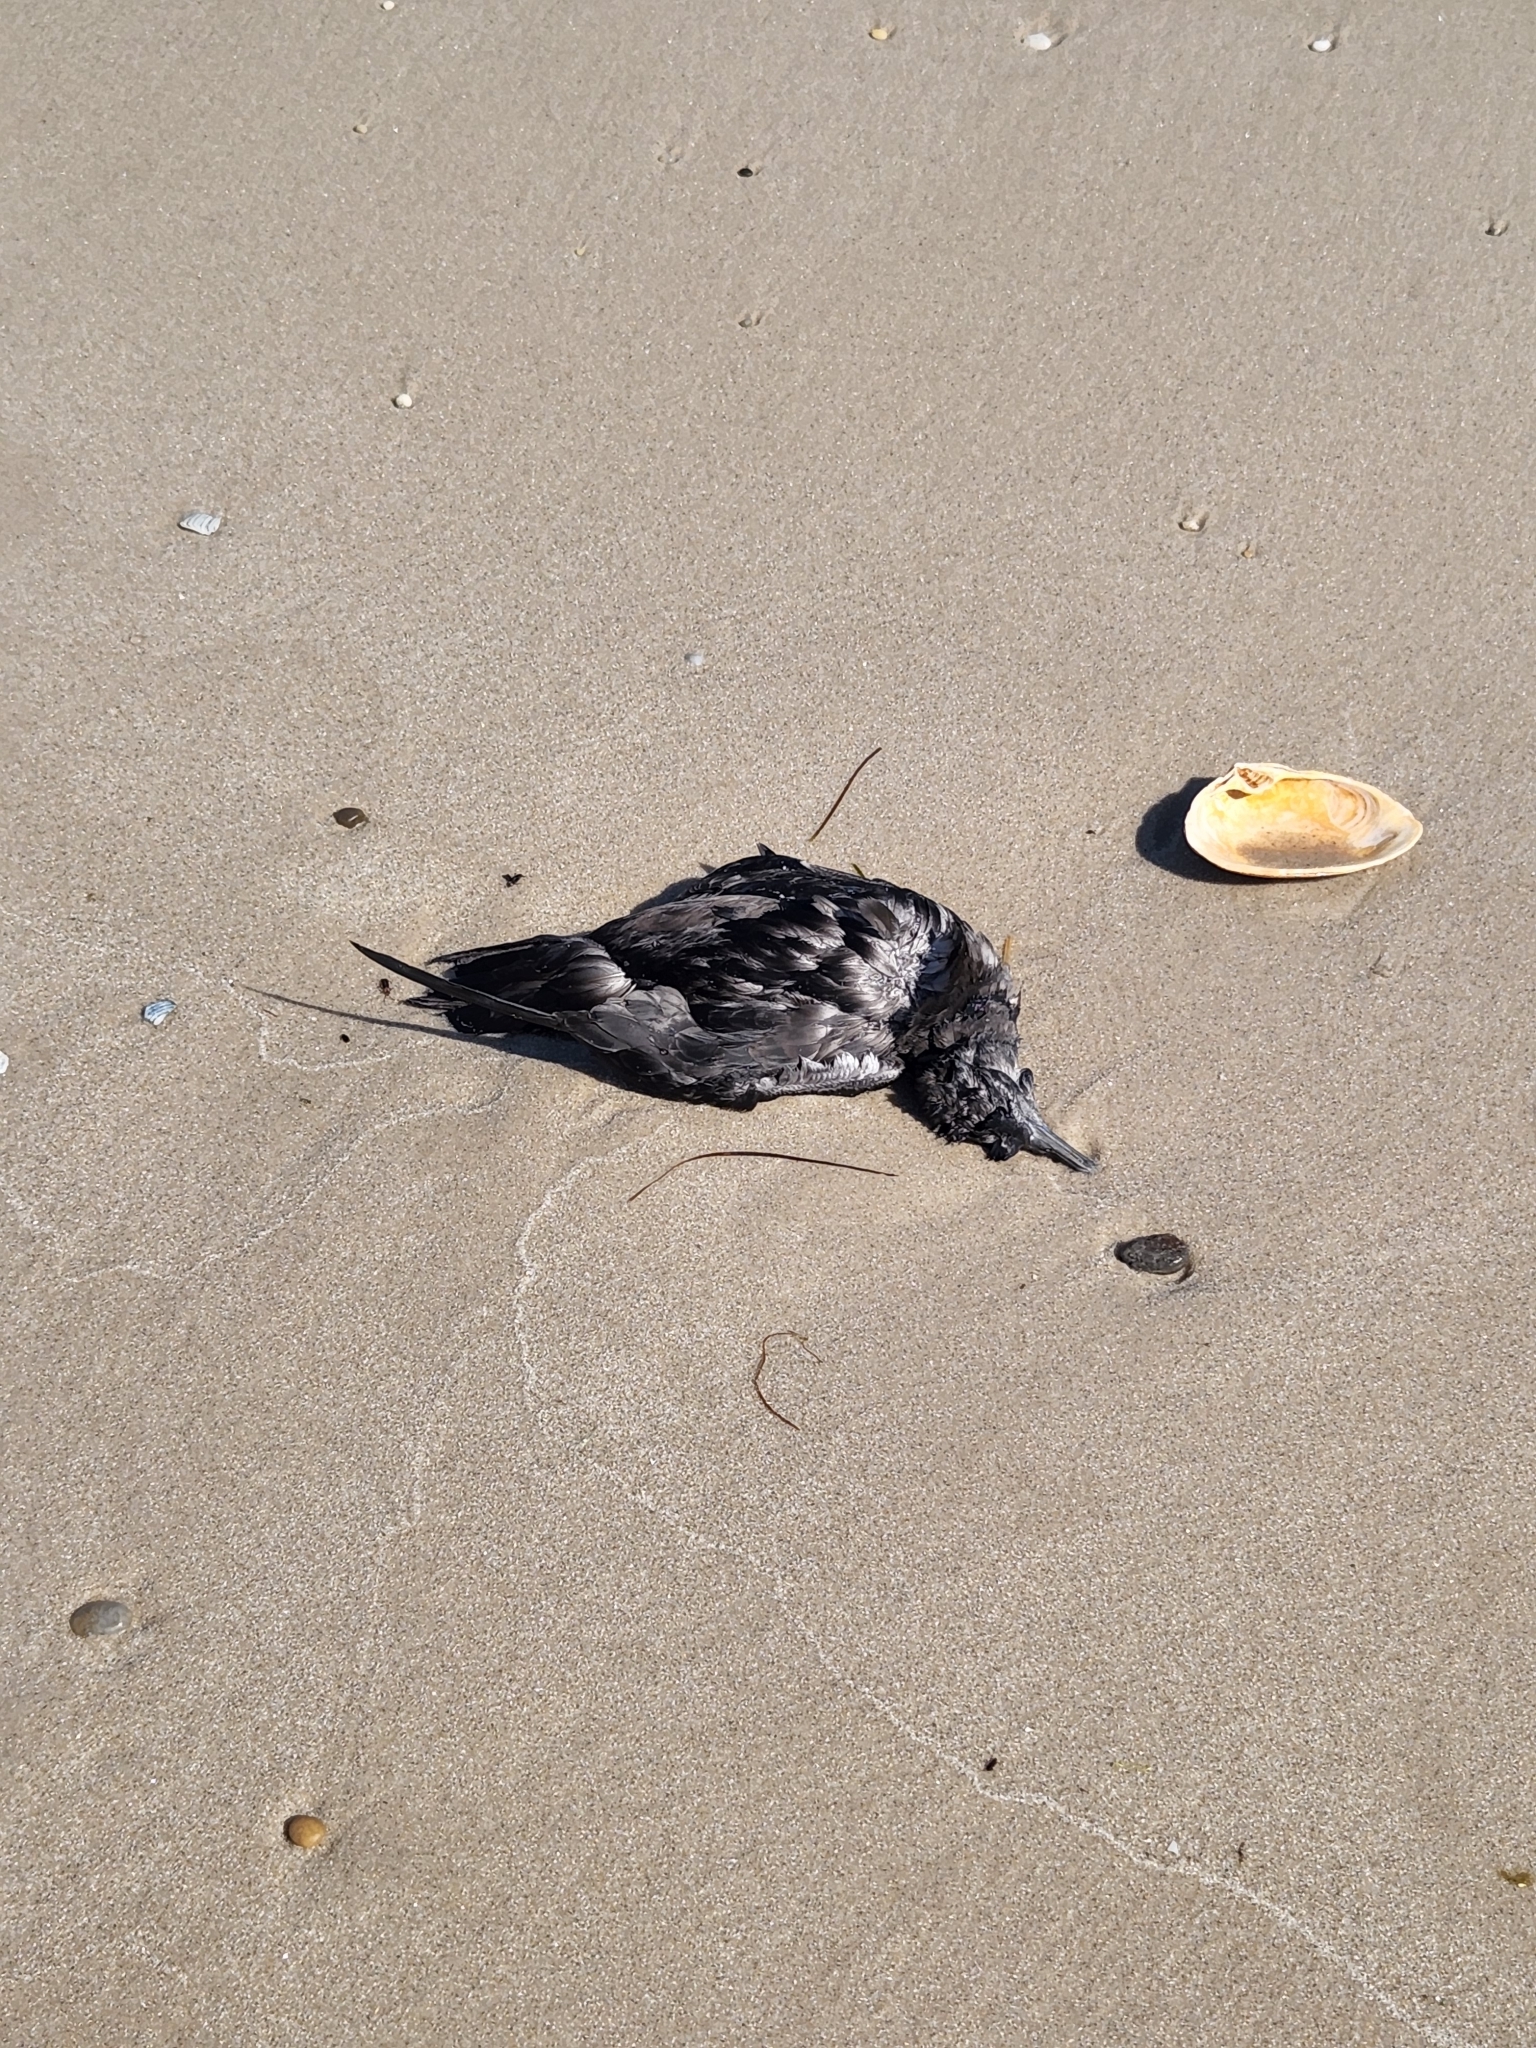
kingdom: Animalia
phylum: Chordata
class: Aves
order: Procellariiformes
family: Procellariidae
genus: Puffinus
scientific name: Puffinus griseus
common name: Sooty shearwater
